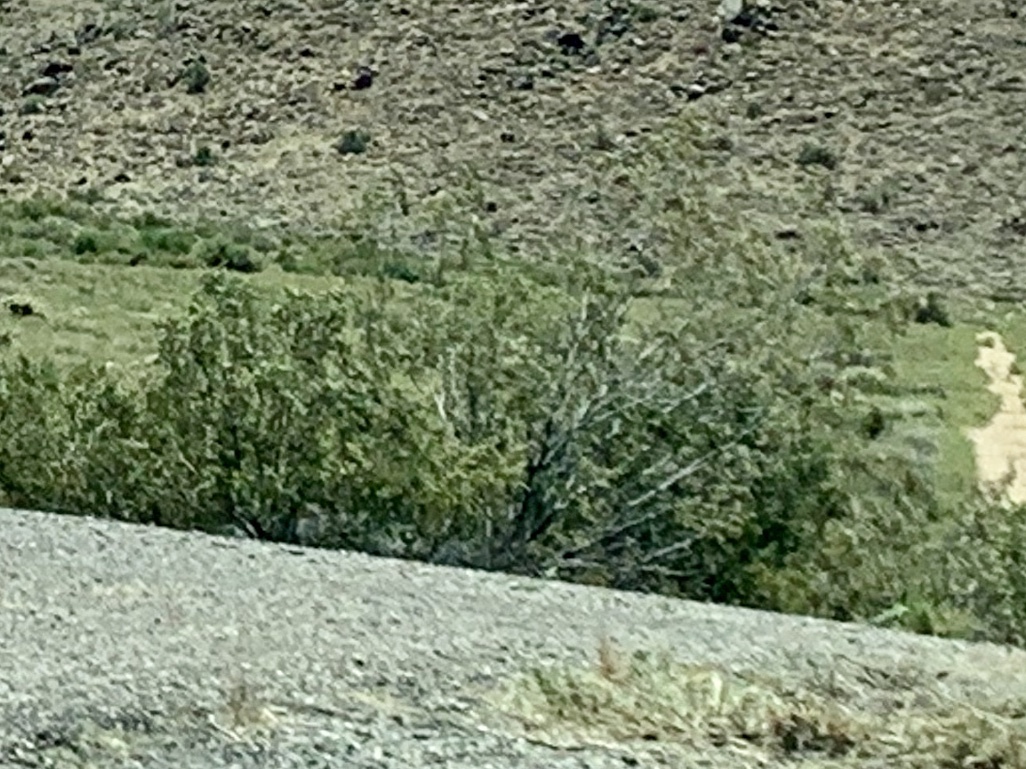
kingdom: Plantae
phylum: Tracheophyta
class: Magnoliopsida
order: Zygophyllales
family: Zygophyllaceae
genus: Larrea
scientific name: Larrea tridentata
